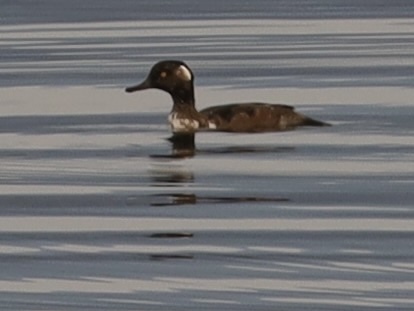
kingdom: Animalia
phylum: Chordata
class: Aves
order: Anseriformes
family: Anatidae
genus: Lophodytes
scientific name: Lophodytes cucullatus
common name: Hooded merganser
